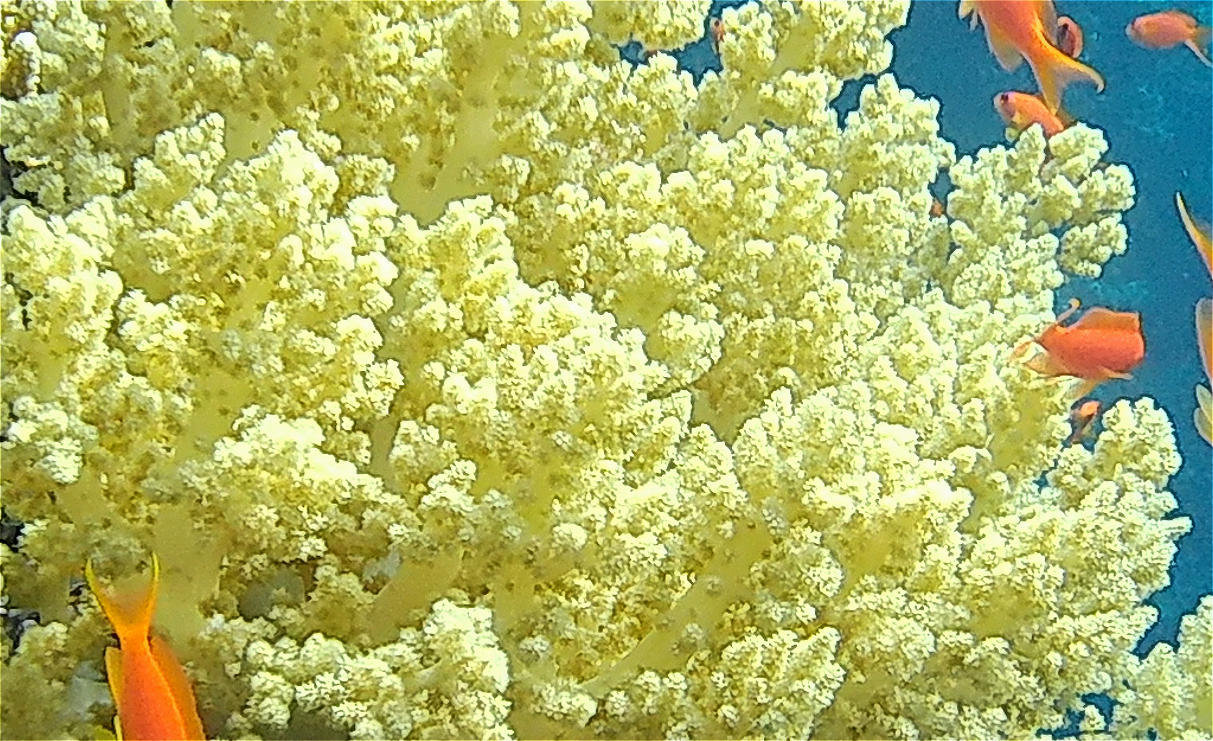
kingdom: Animalia
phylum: Cnidaria
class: Anthozoa
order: Malacalcyonacea
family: Nephtheidae
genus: Litophyton
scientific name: Litophyton arboreum
